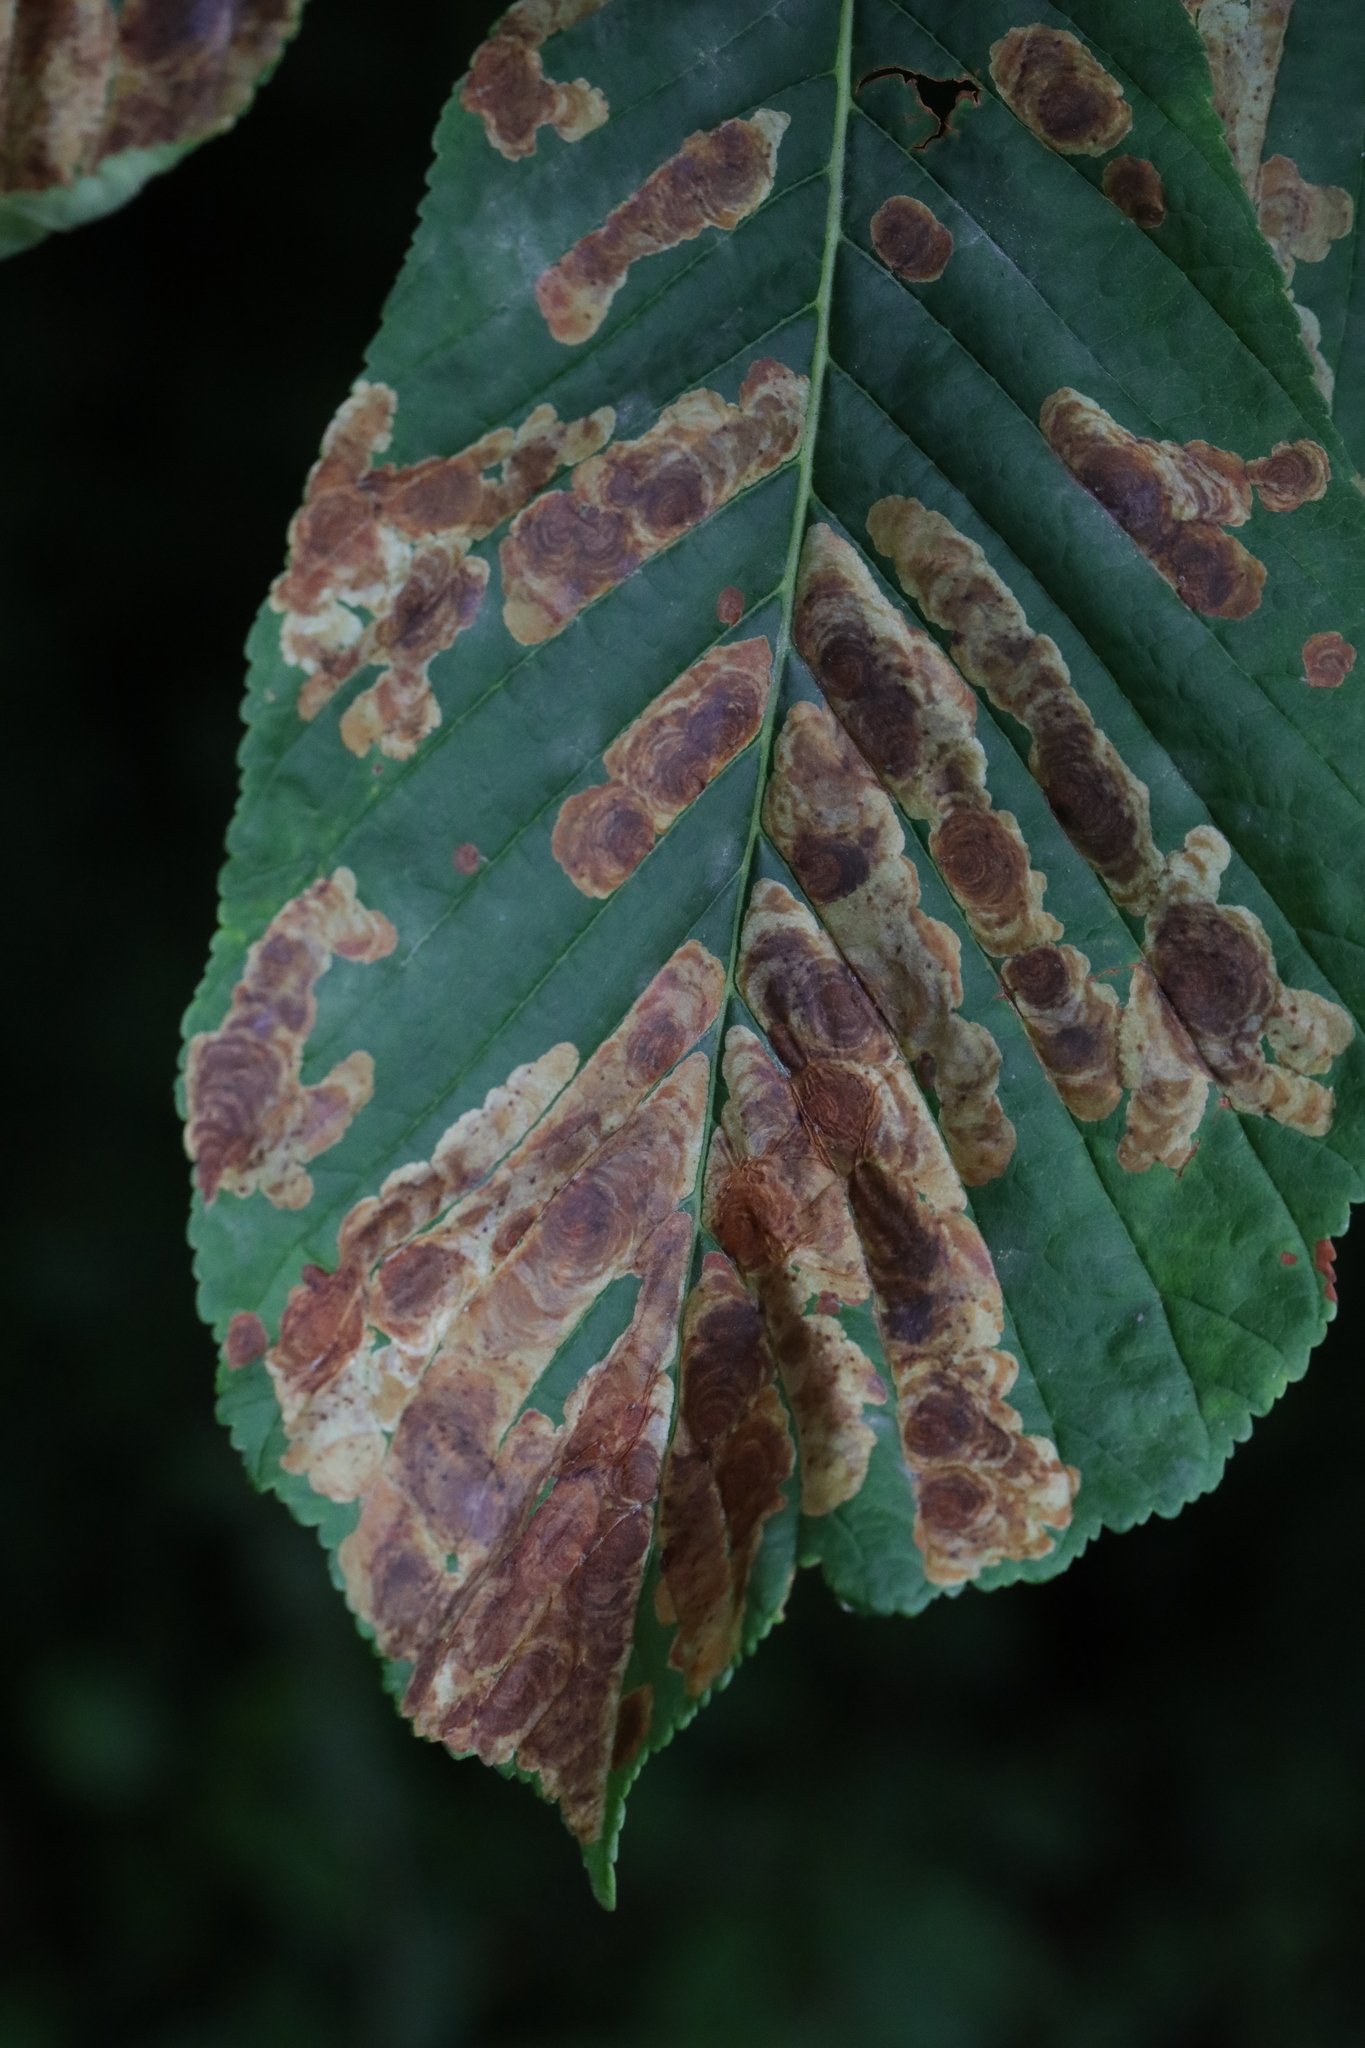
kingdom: Animalia
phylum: Arthropoda
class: Insecta
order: Lepidoptera
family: Gracillariidae
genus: Cameraria
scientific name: Cameraria ohridella
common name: Horse-chestnut leaf-miner
